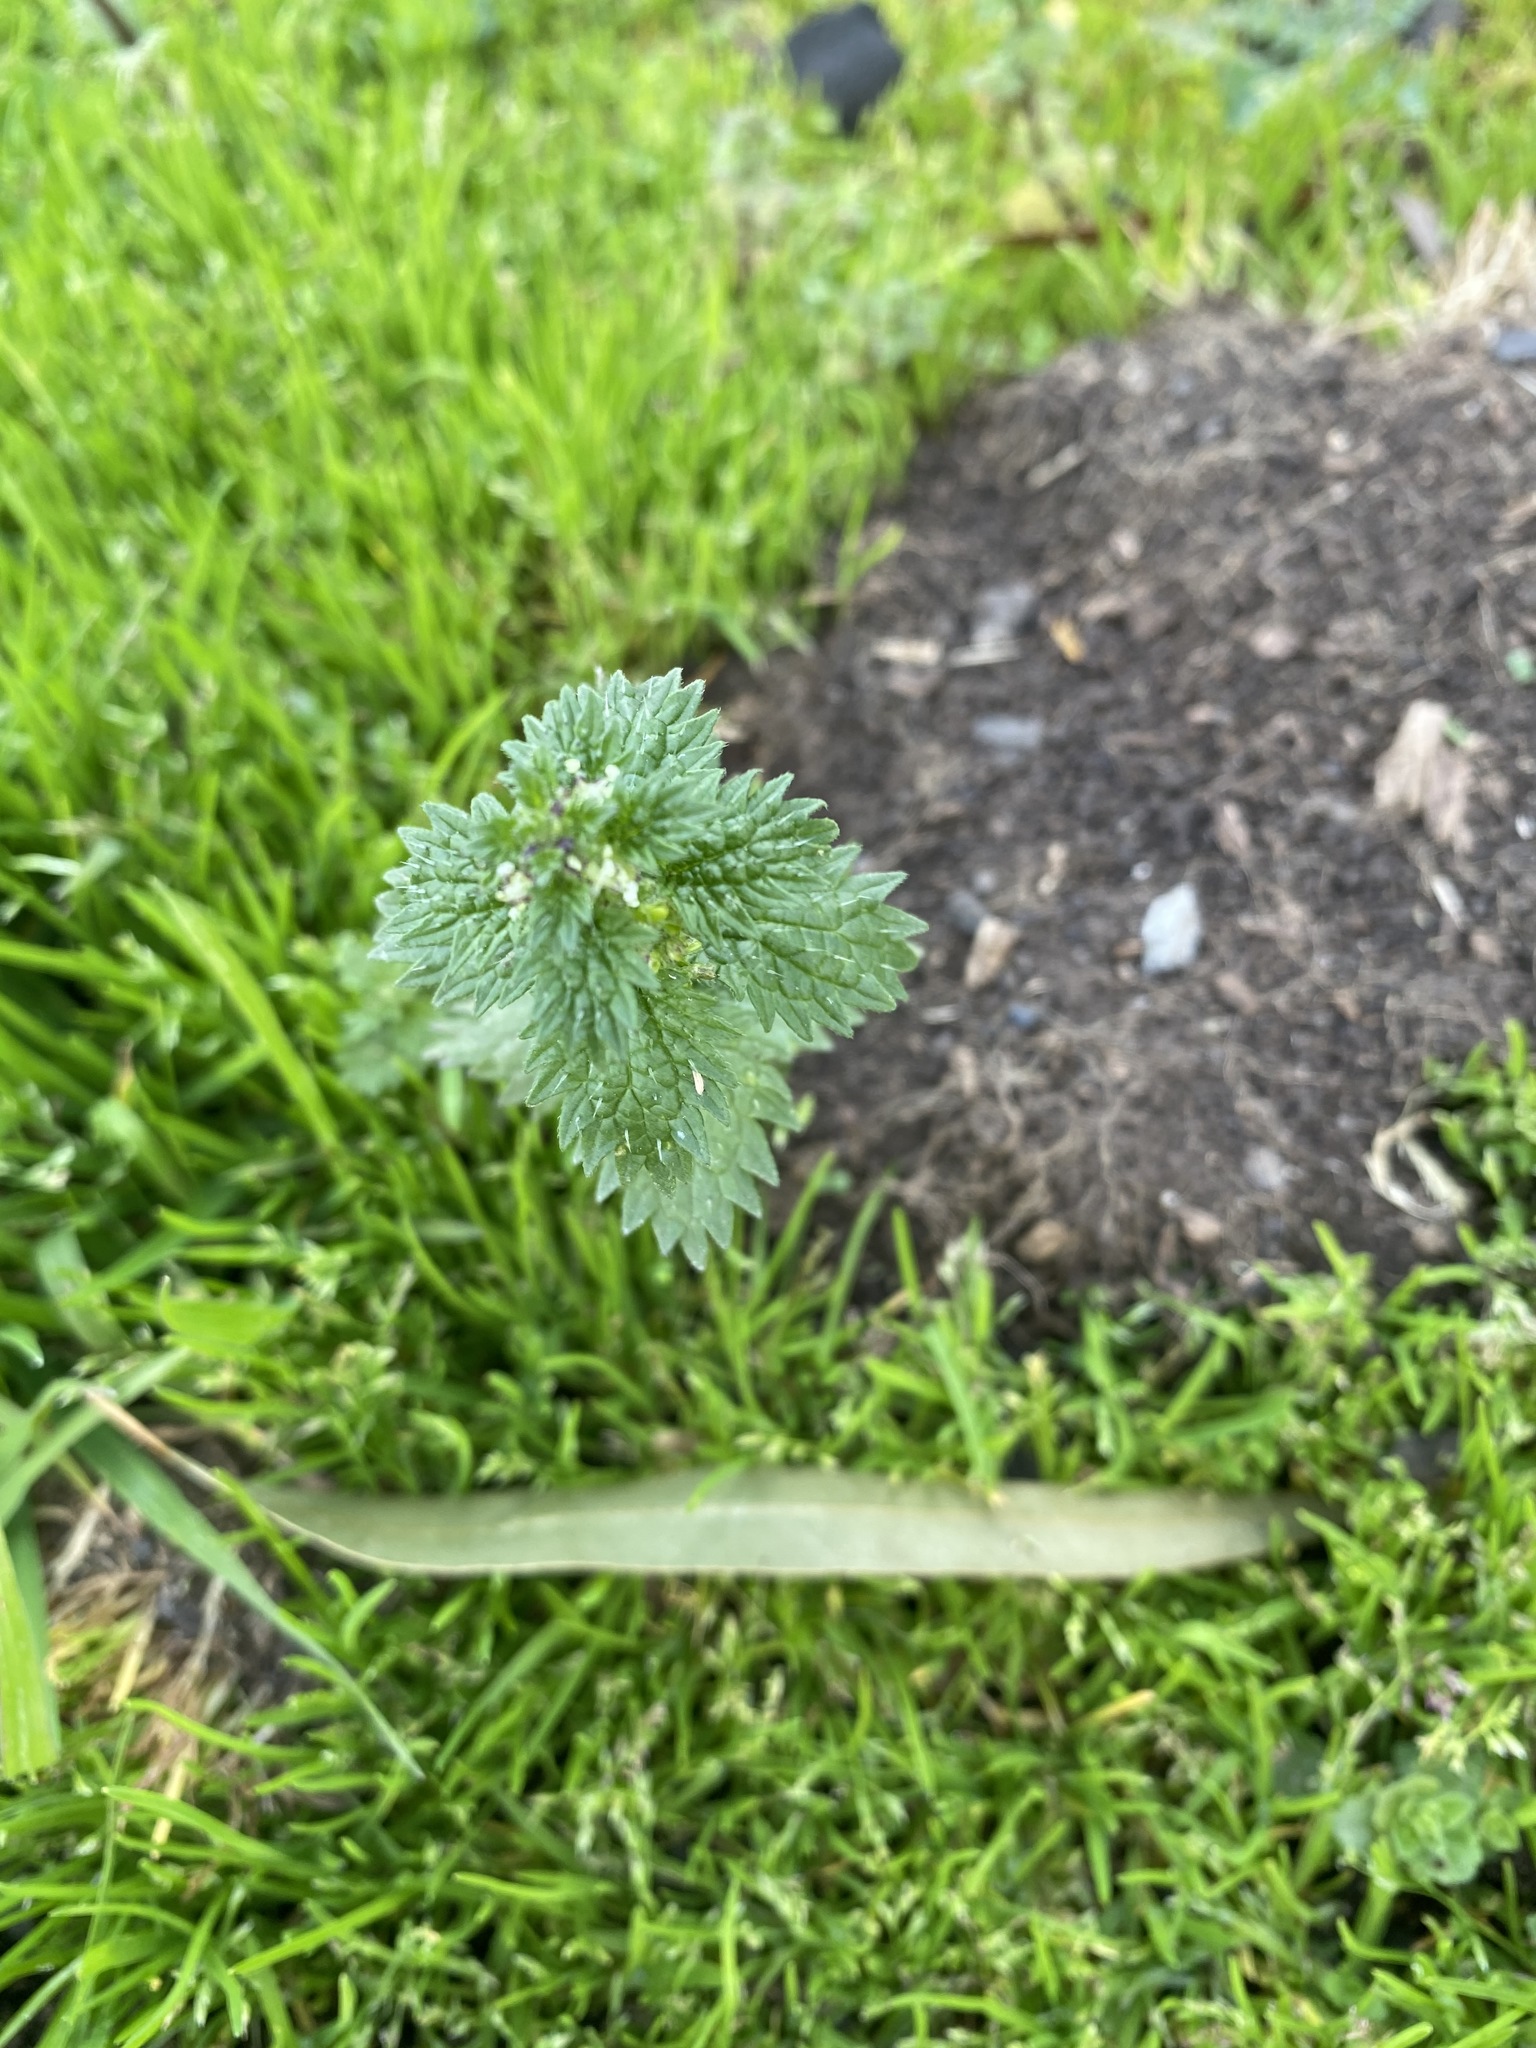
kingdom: Plantae
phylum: Tracheophyta
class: Magnoliopsida
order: Rosales
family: Urticaceae
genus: Urtica
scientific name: Urtica urens
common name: Dwarf nettle
